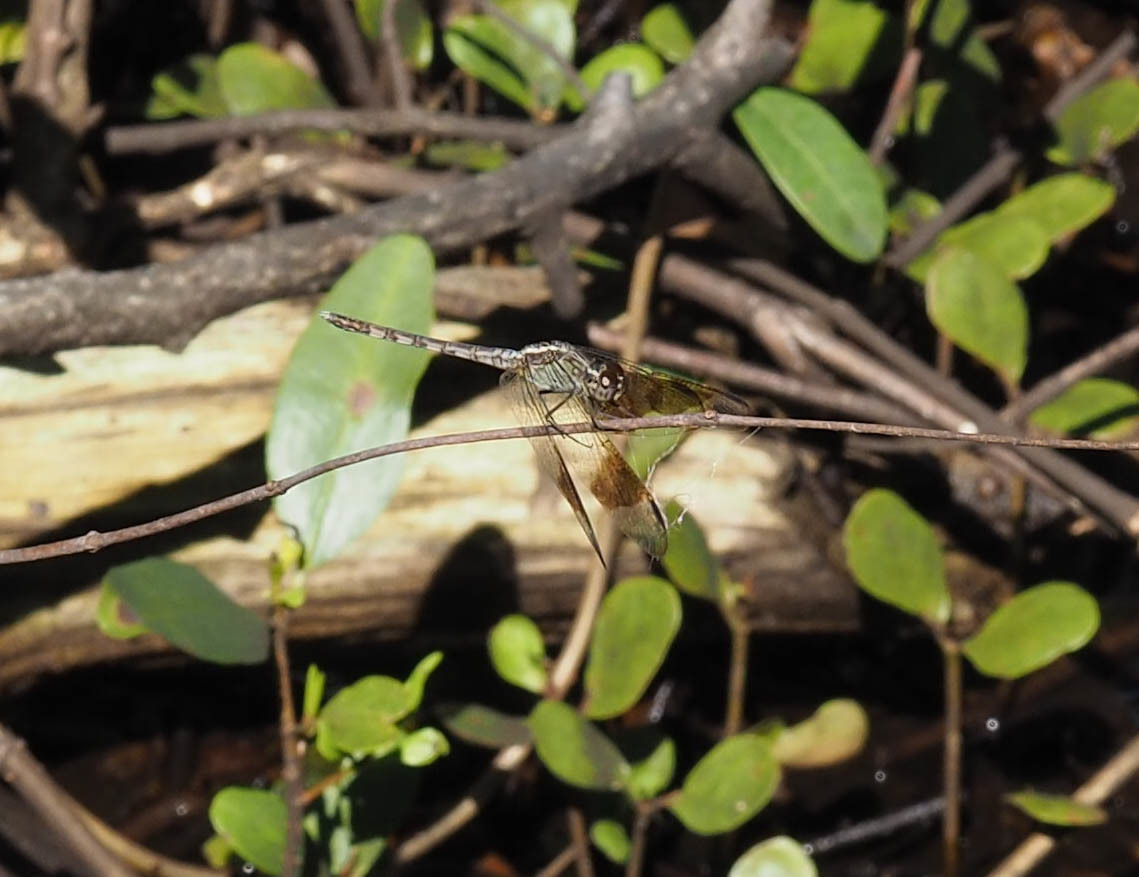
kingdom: Animalia
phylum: Arthropoda
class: Insecta
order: Odonata
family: Libellulidae
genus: Erythrodiplax
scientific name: Erythrodiplax umbrata
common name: Band-winged dragonlet
